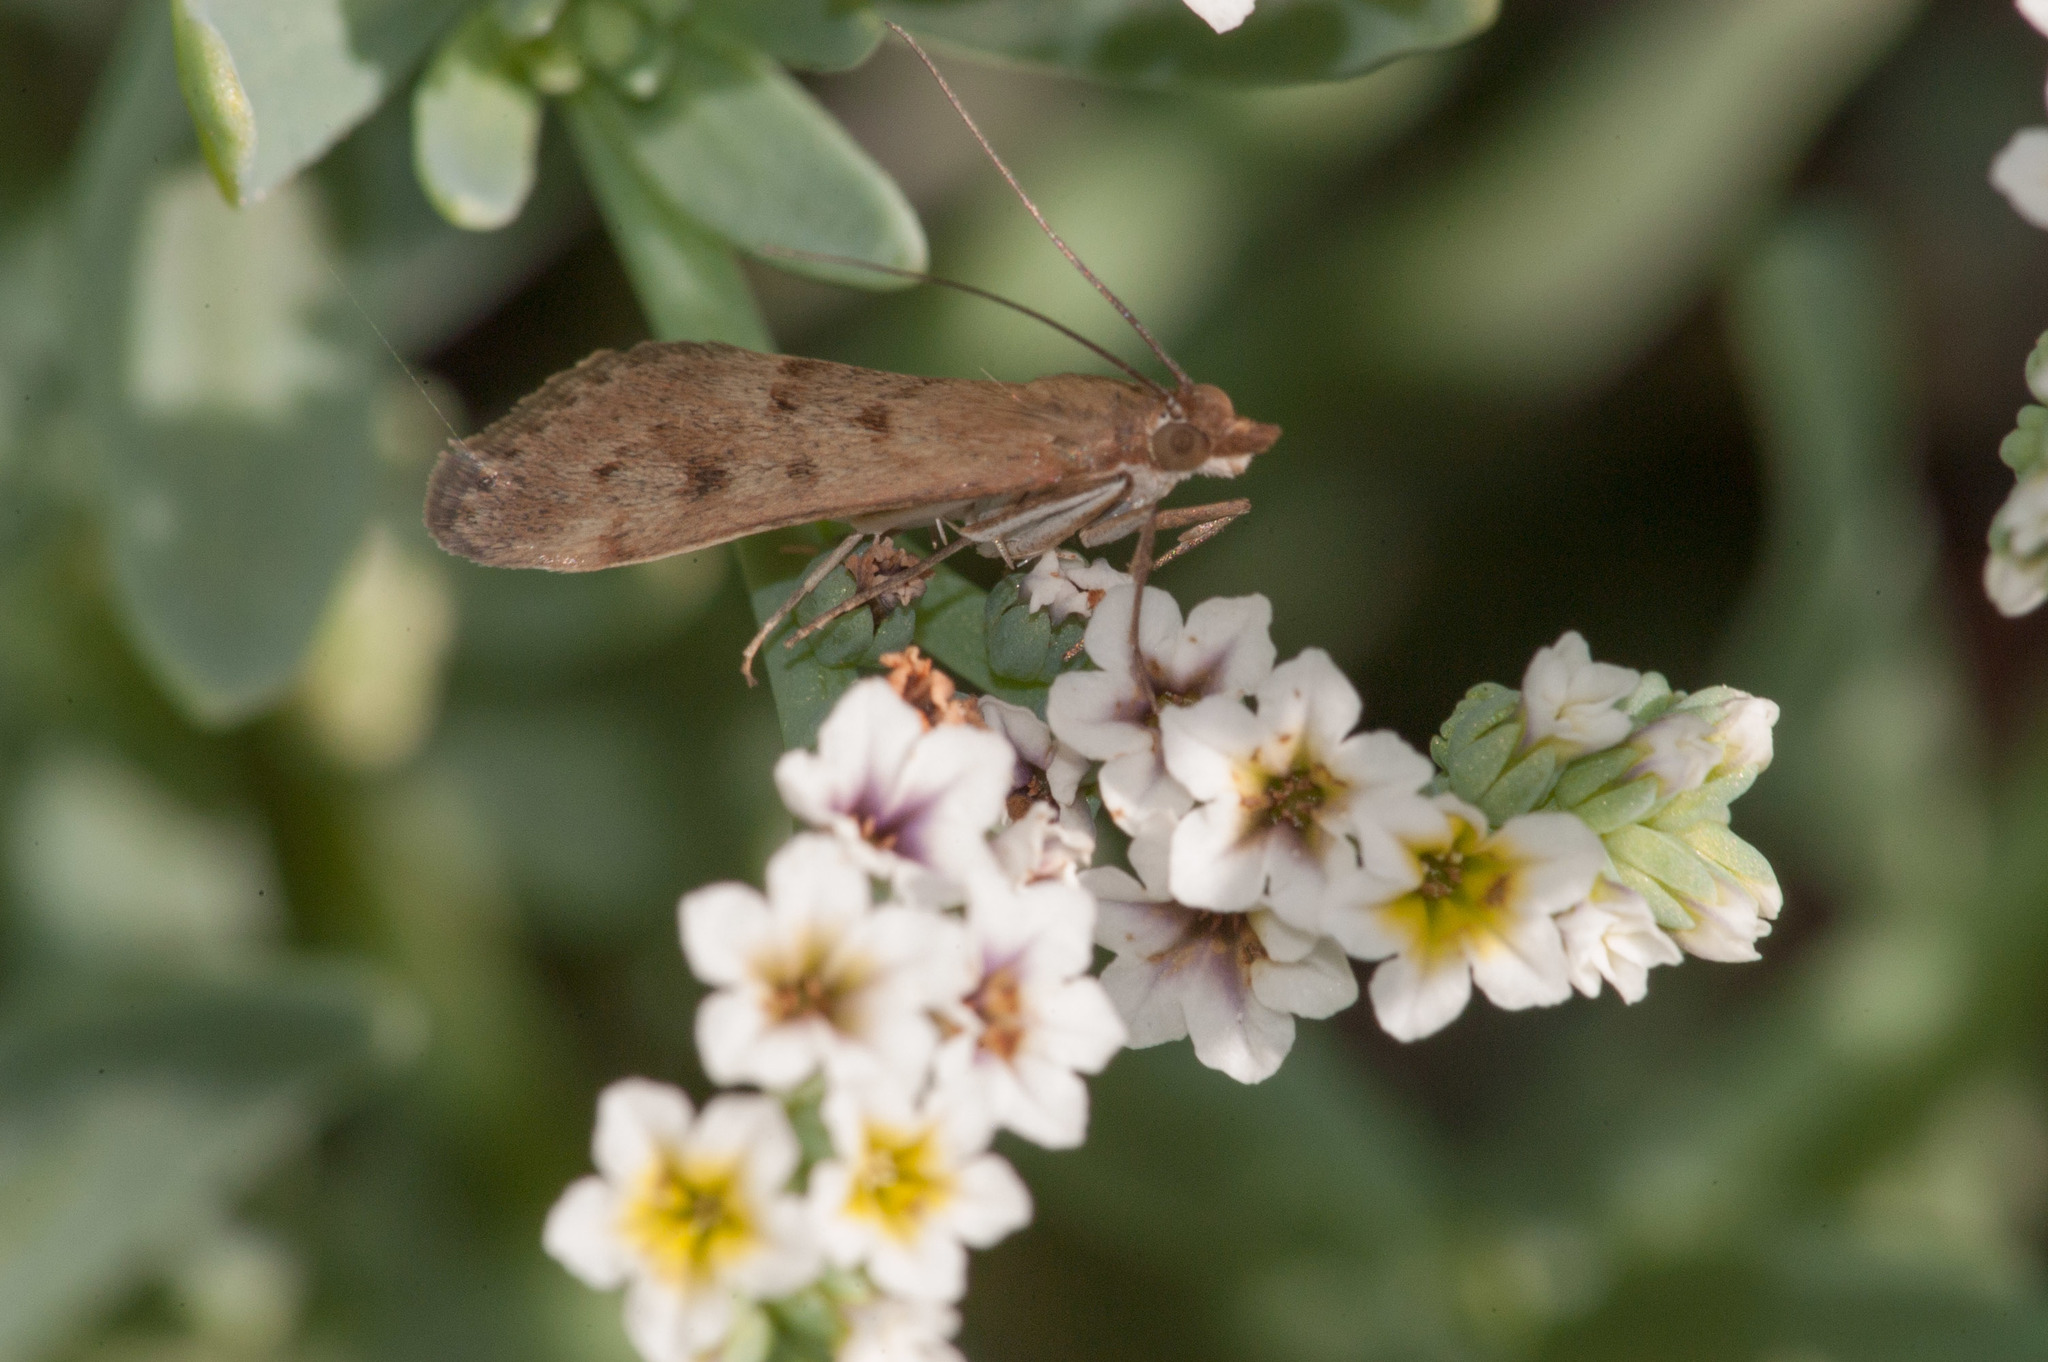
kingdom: Animalia
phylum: Arthropoda
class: Insecta
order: Lepidoptera
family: Crambidae
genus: Achyra
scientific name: Achyra affinitalis
